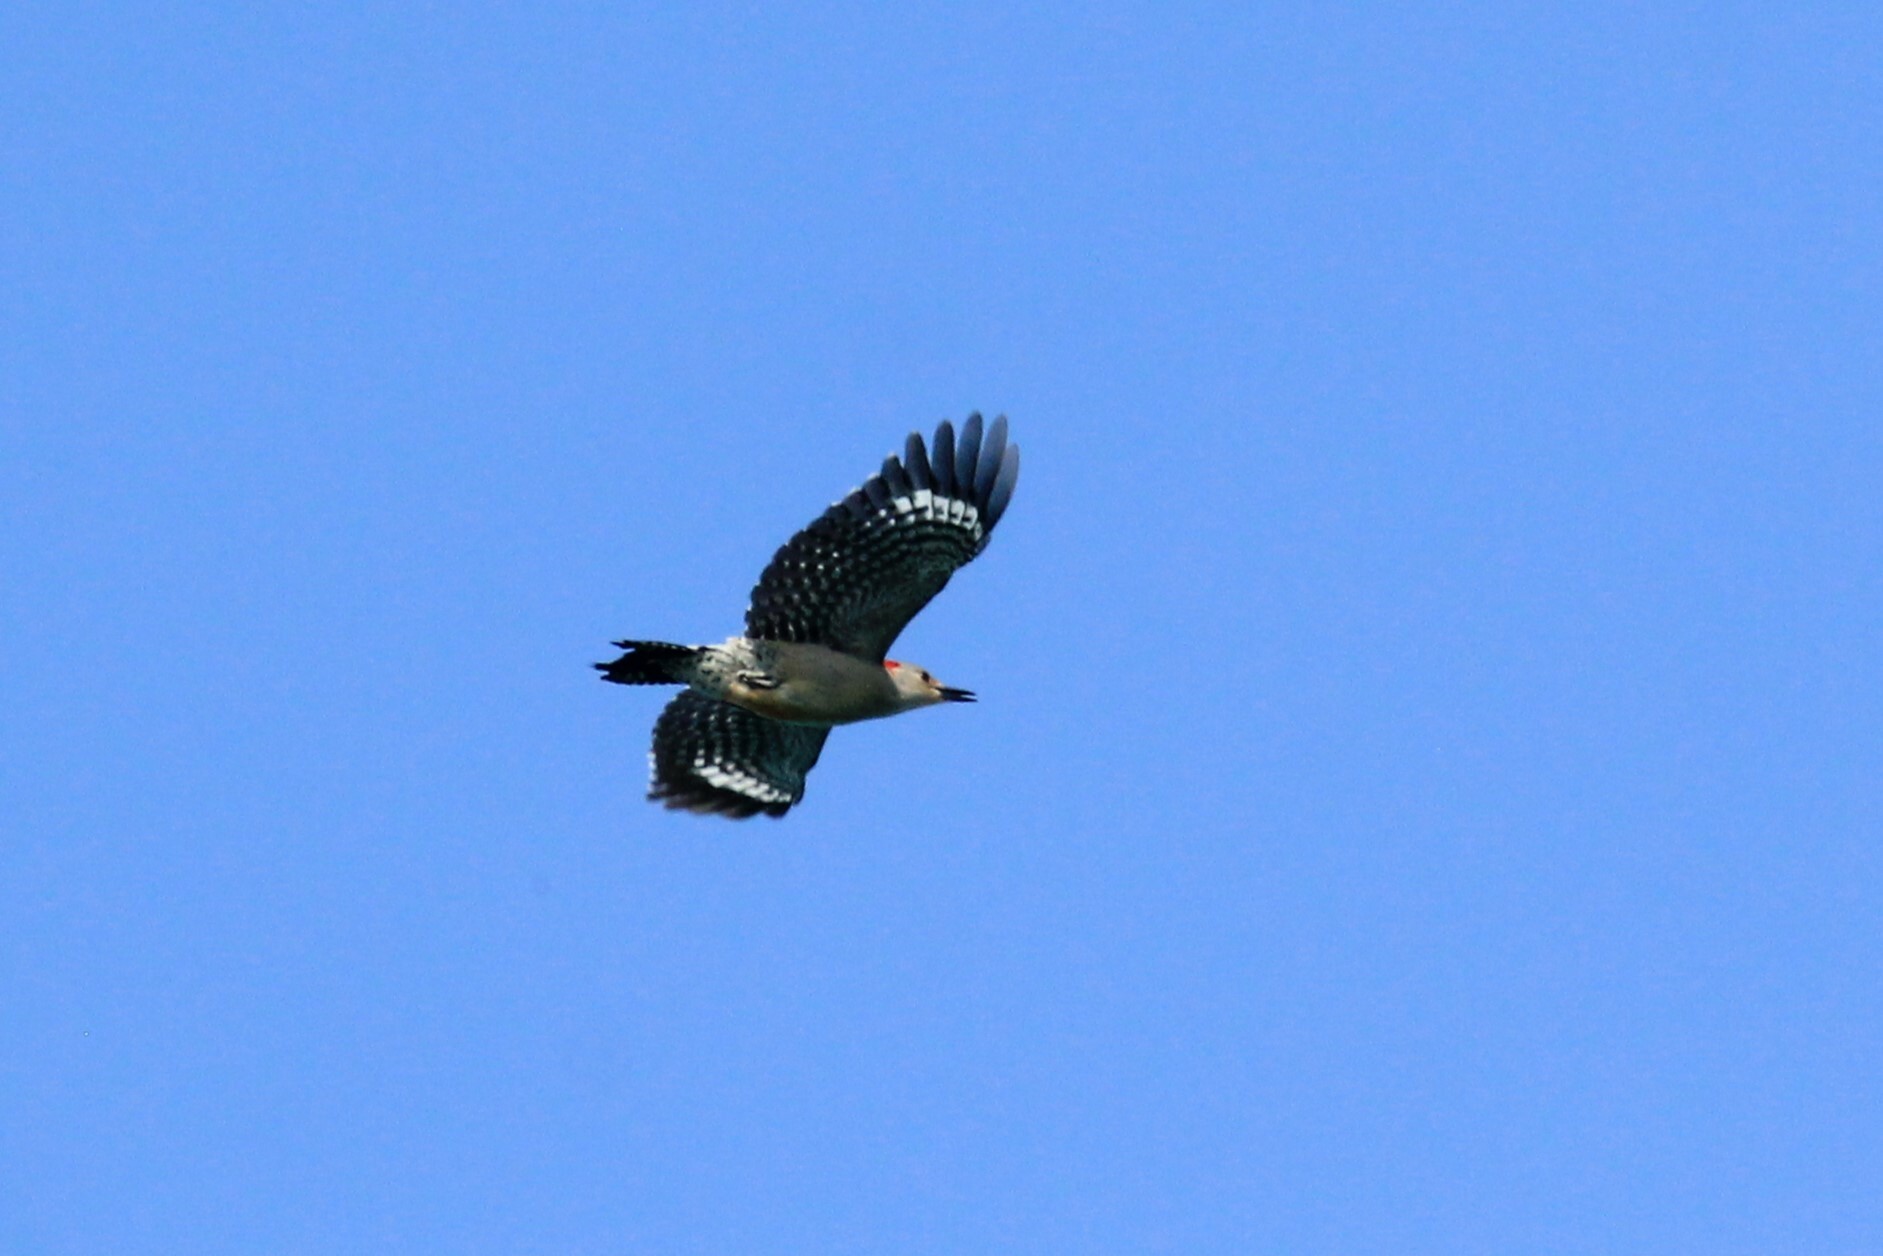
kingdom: Animalia
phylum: Chordata
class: Aves
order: Piciformes
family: Picidae
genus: Melanerpes
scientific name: Melanerpes carolinus
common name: Red-bellied woodpecker
